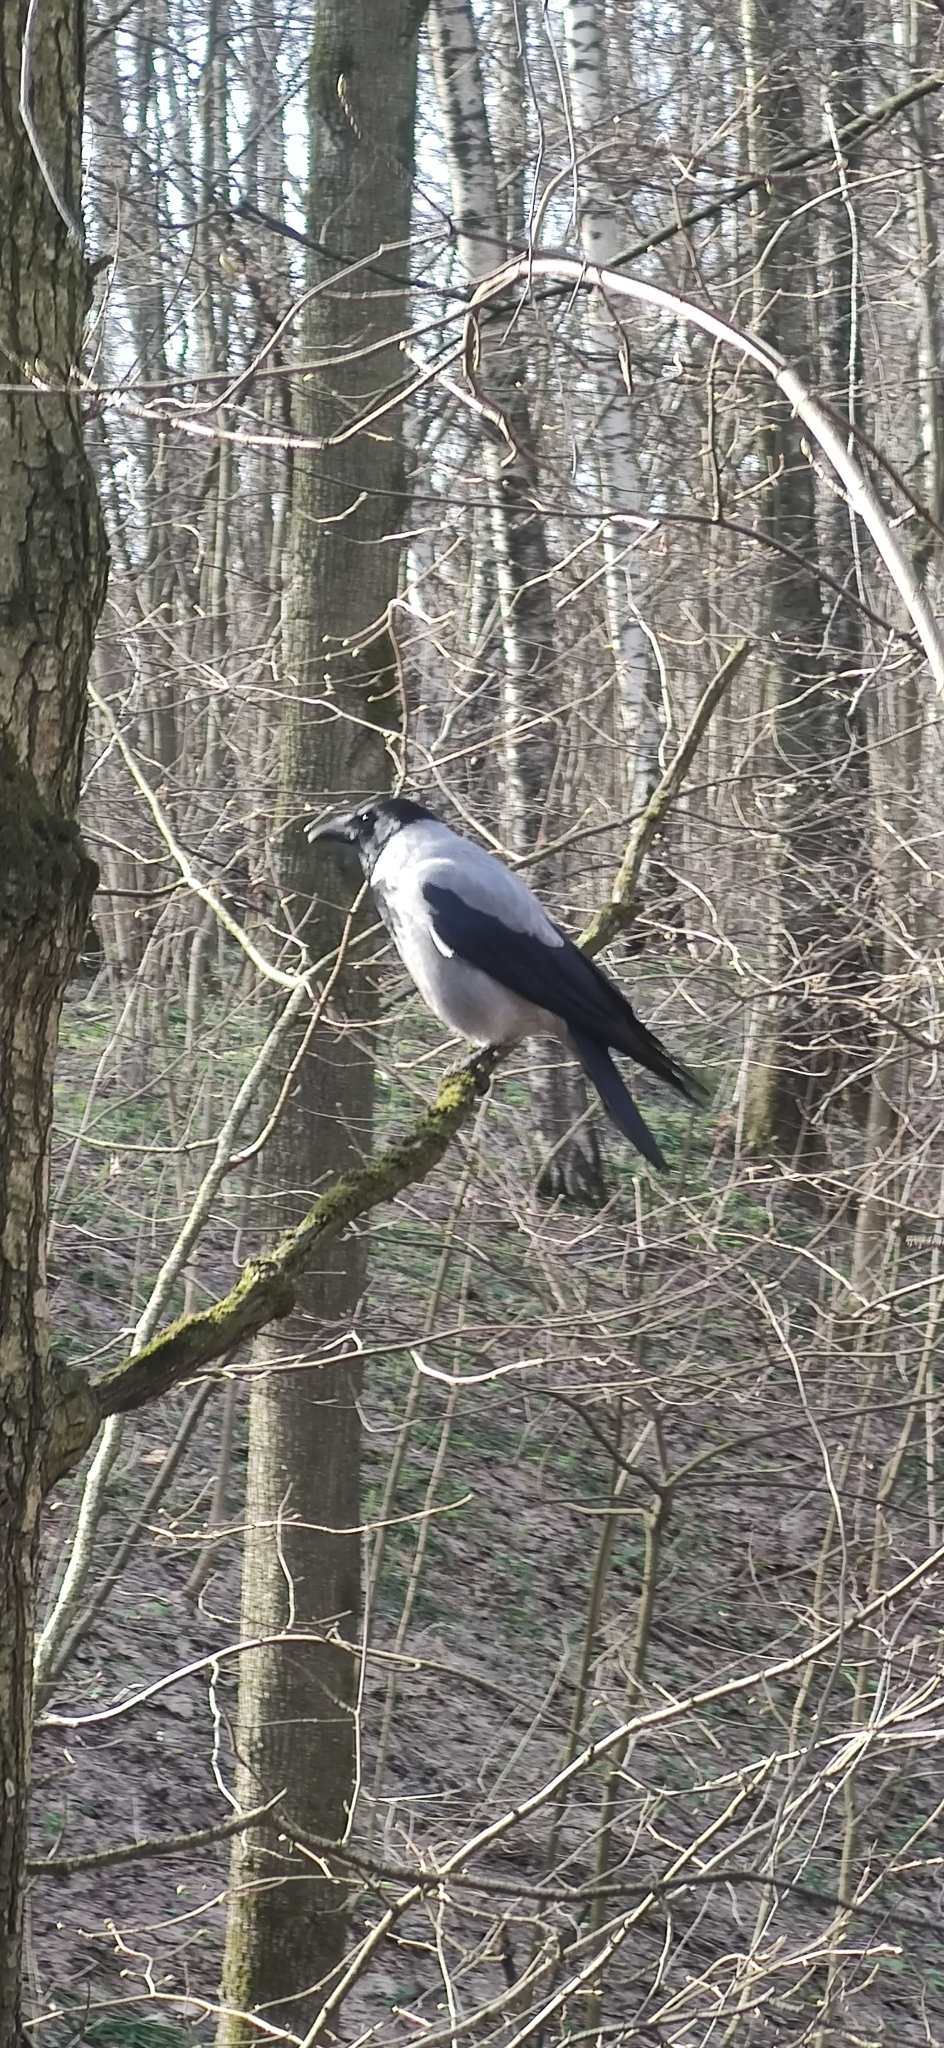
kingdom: Animalia
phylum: Chordata
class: Aves
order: Passeriformes
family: Corvidae
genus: Corvus
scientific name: Corvus cornix
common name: Hooded crow
